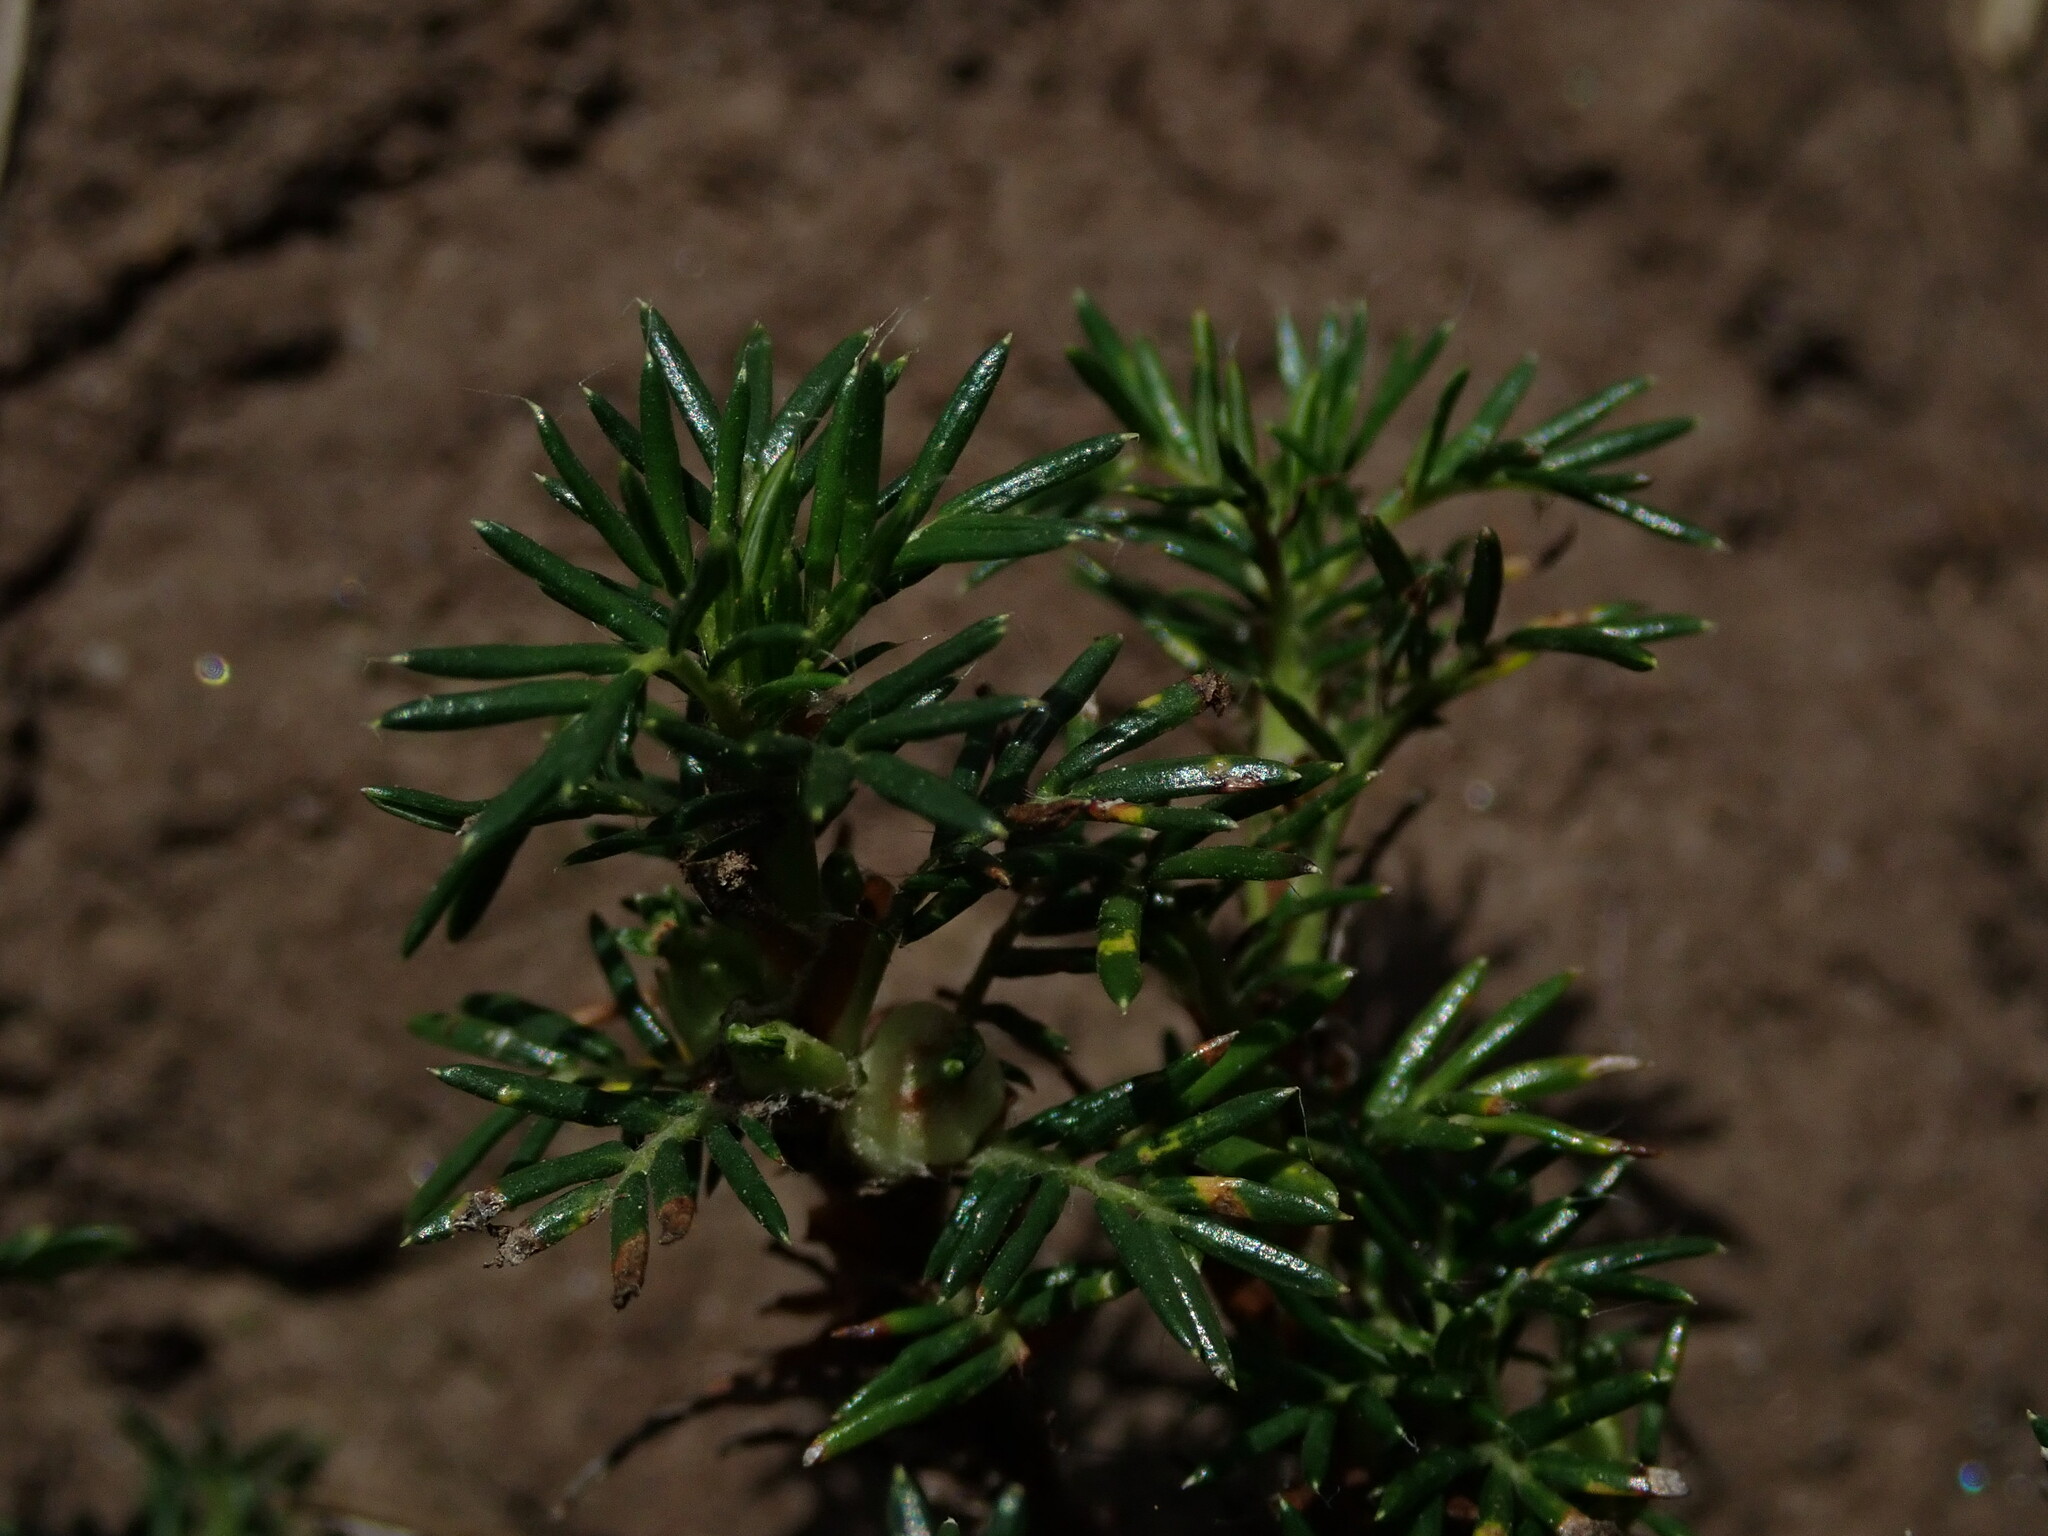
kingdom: Plantae
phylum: Tracheophyta
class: Magnoliopsida
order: Rosales
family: Rosaceae
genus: Margyricarpus
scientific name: Margyricarpus pinnatus
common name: Pearlfruit
